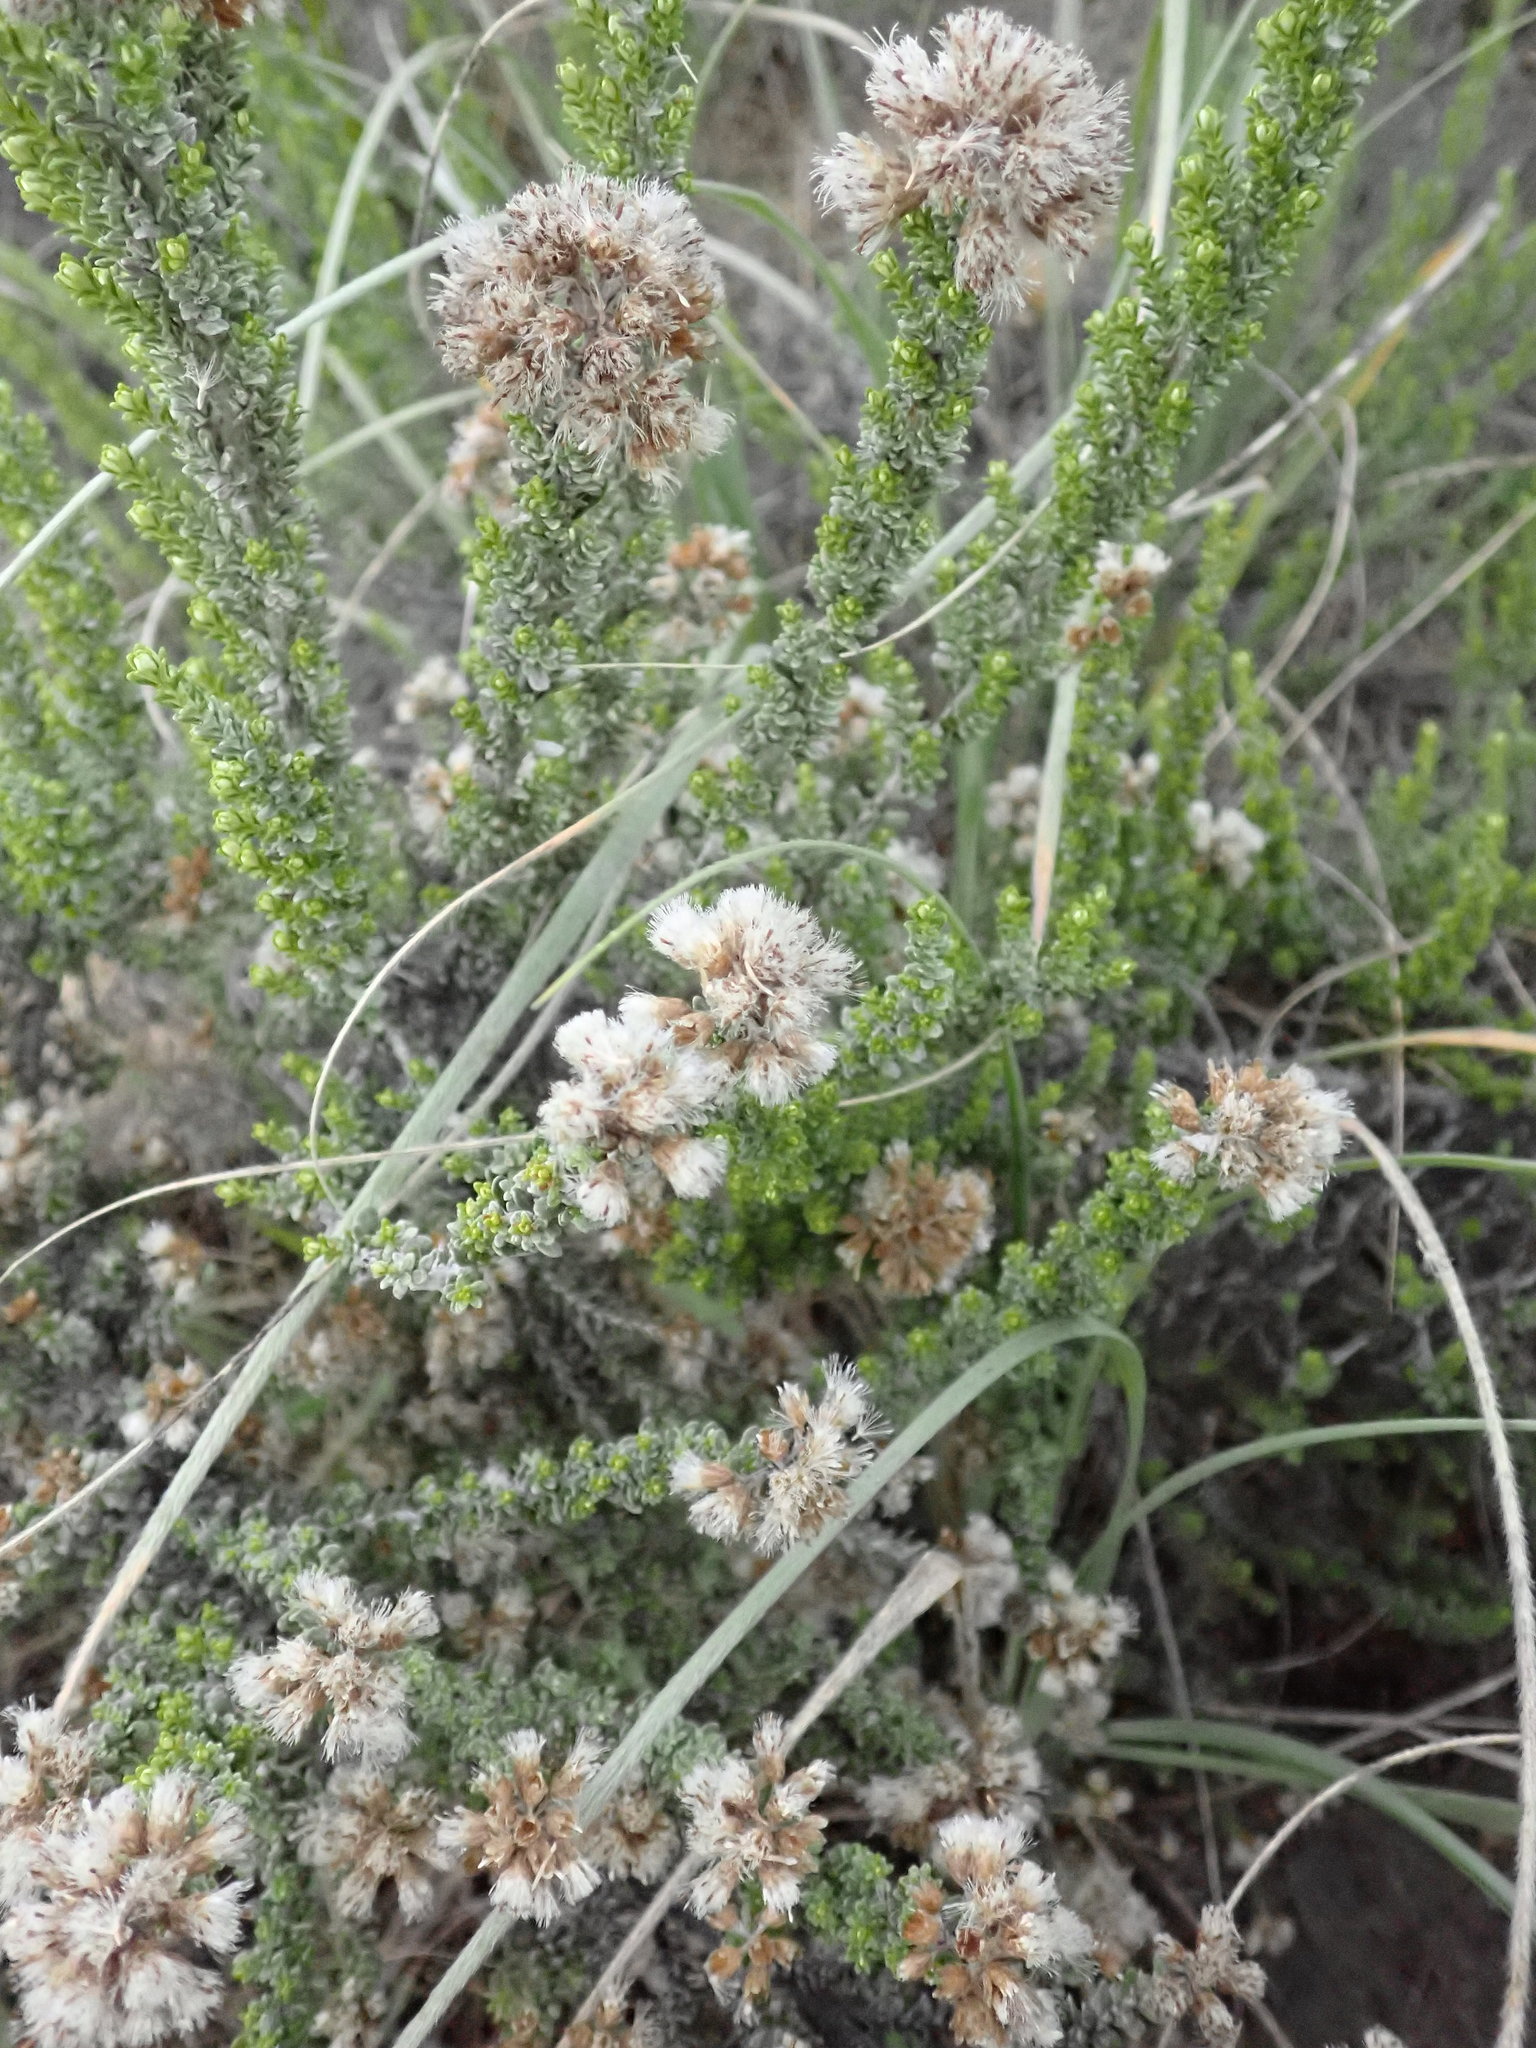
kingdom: Plantae
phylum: Tracheophyta
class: Magnoliopsida
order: Asterales
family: Asteraceae
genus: Ozothamnus
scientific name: Ozothamnus leptophyllus
